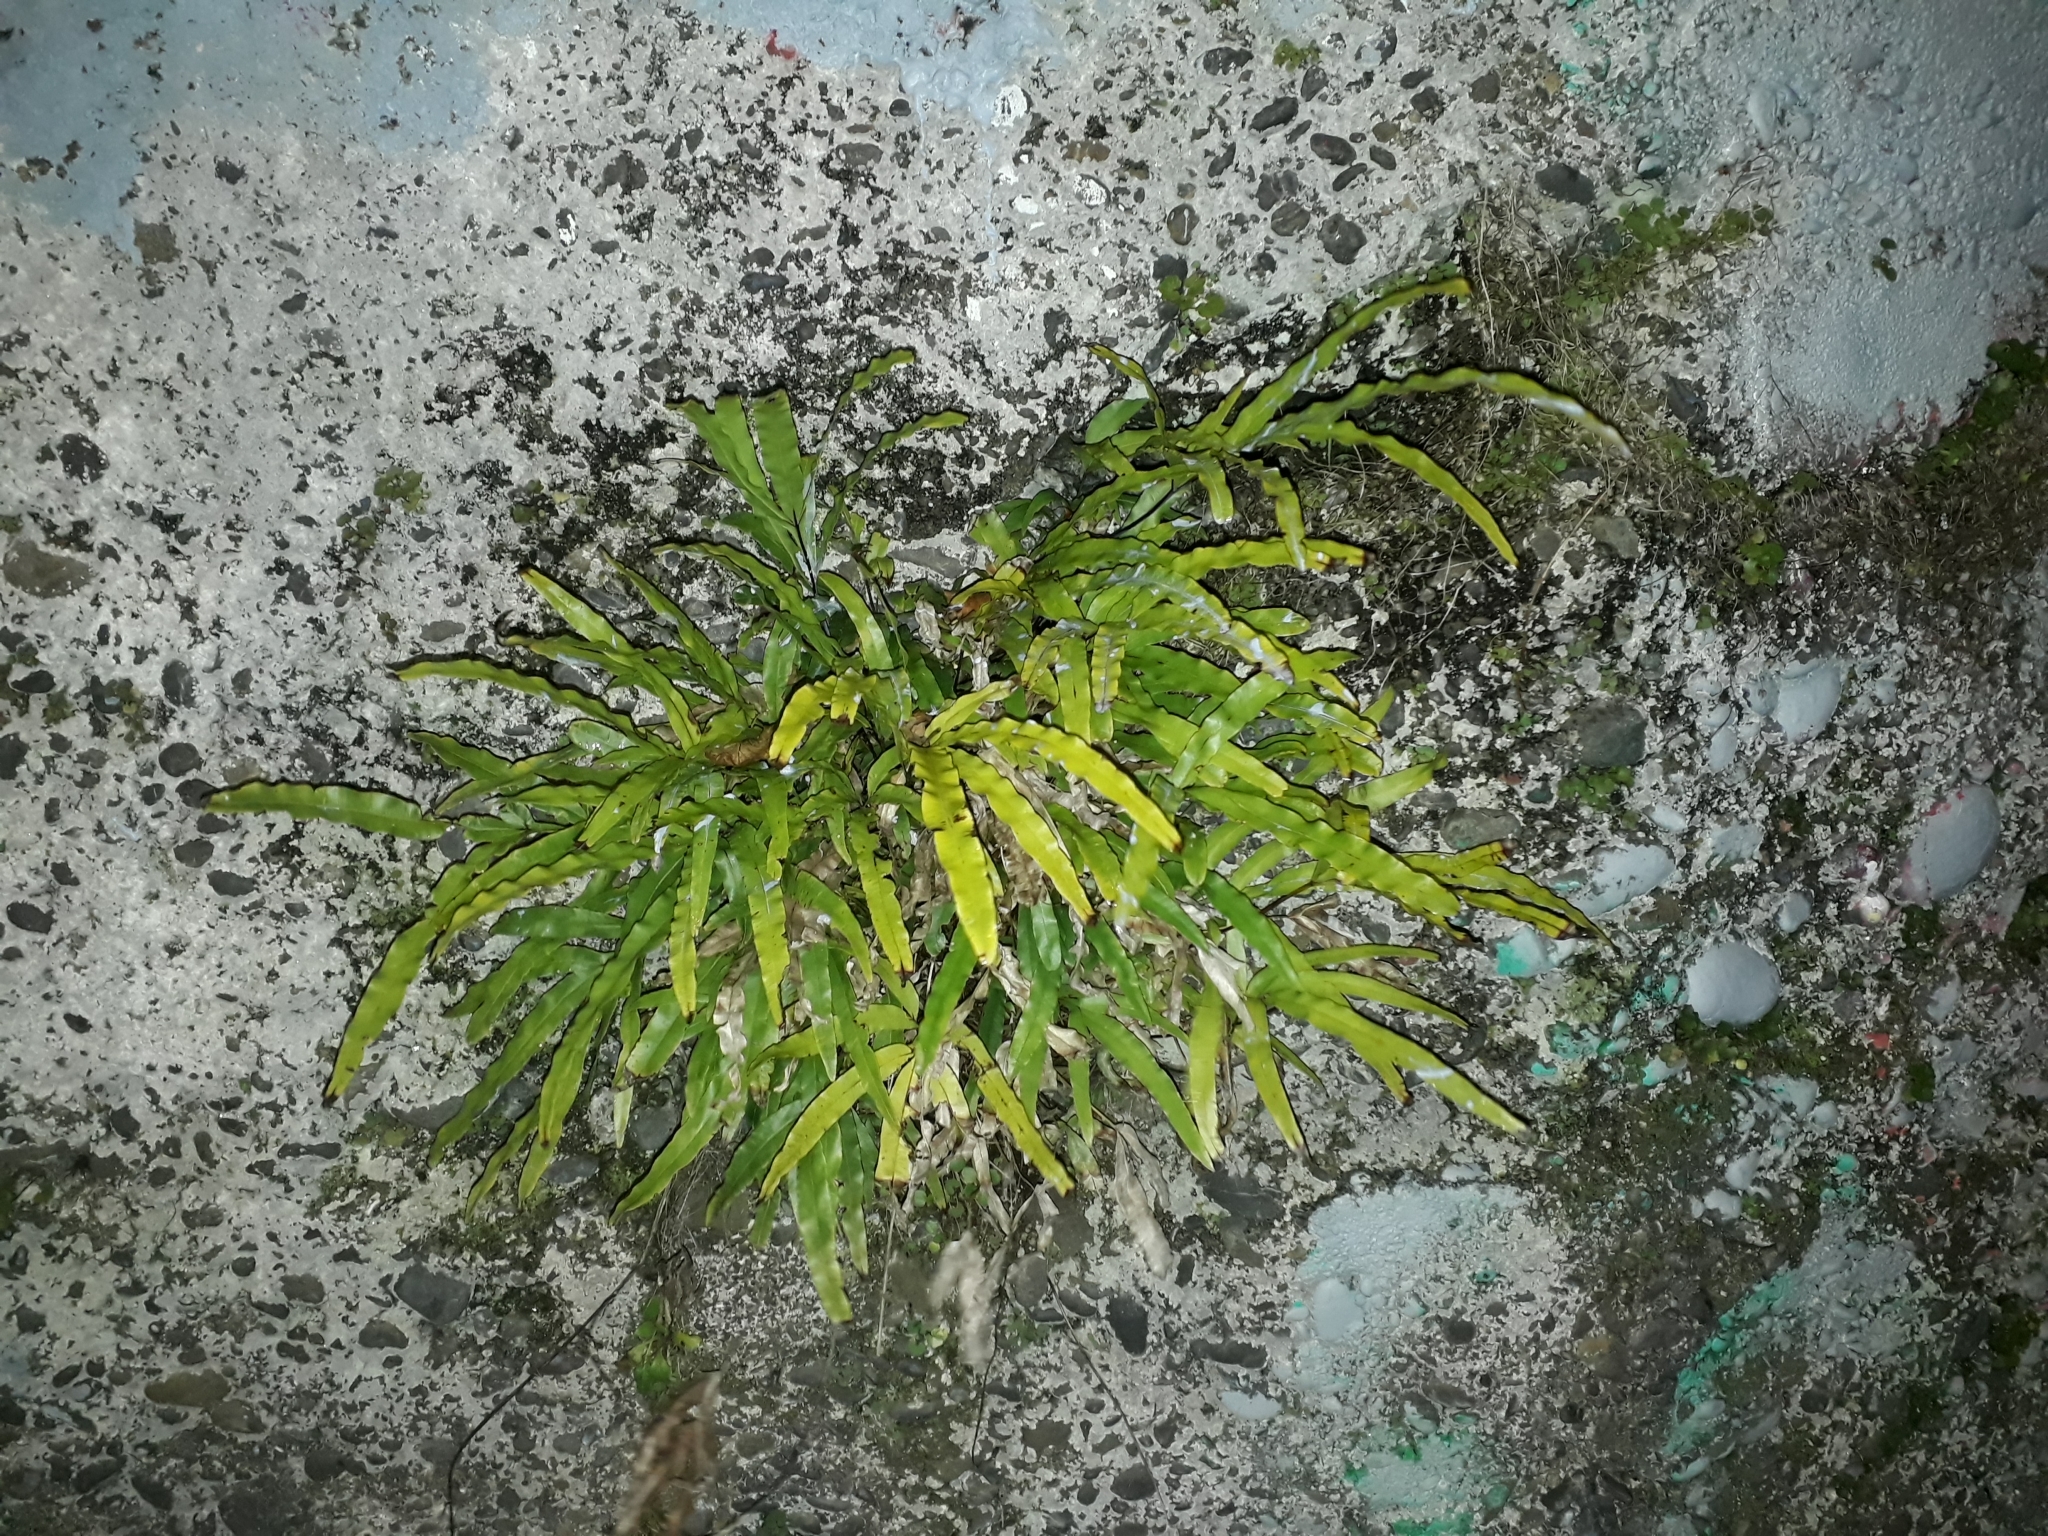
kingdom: Plantae
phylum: Tracheophyta
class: Polypodiopsida
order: Polypodiales
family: Pteridaceae
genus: Pteris
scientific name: Pteris cretica
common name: Ribbon fern
